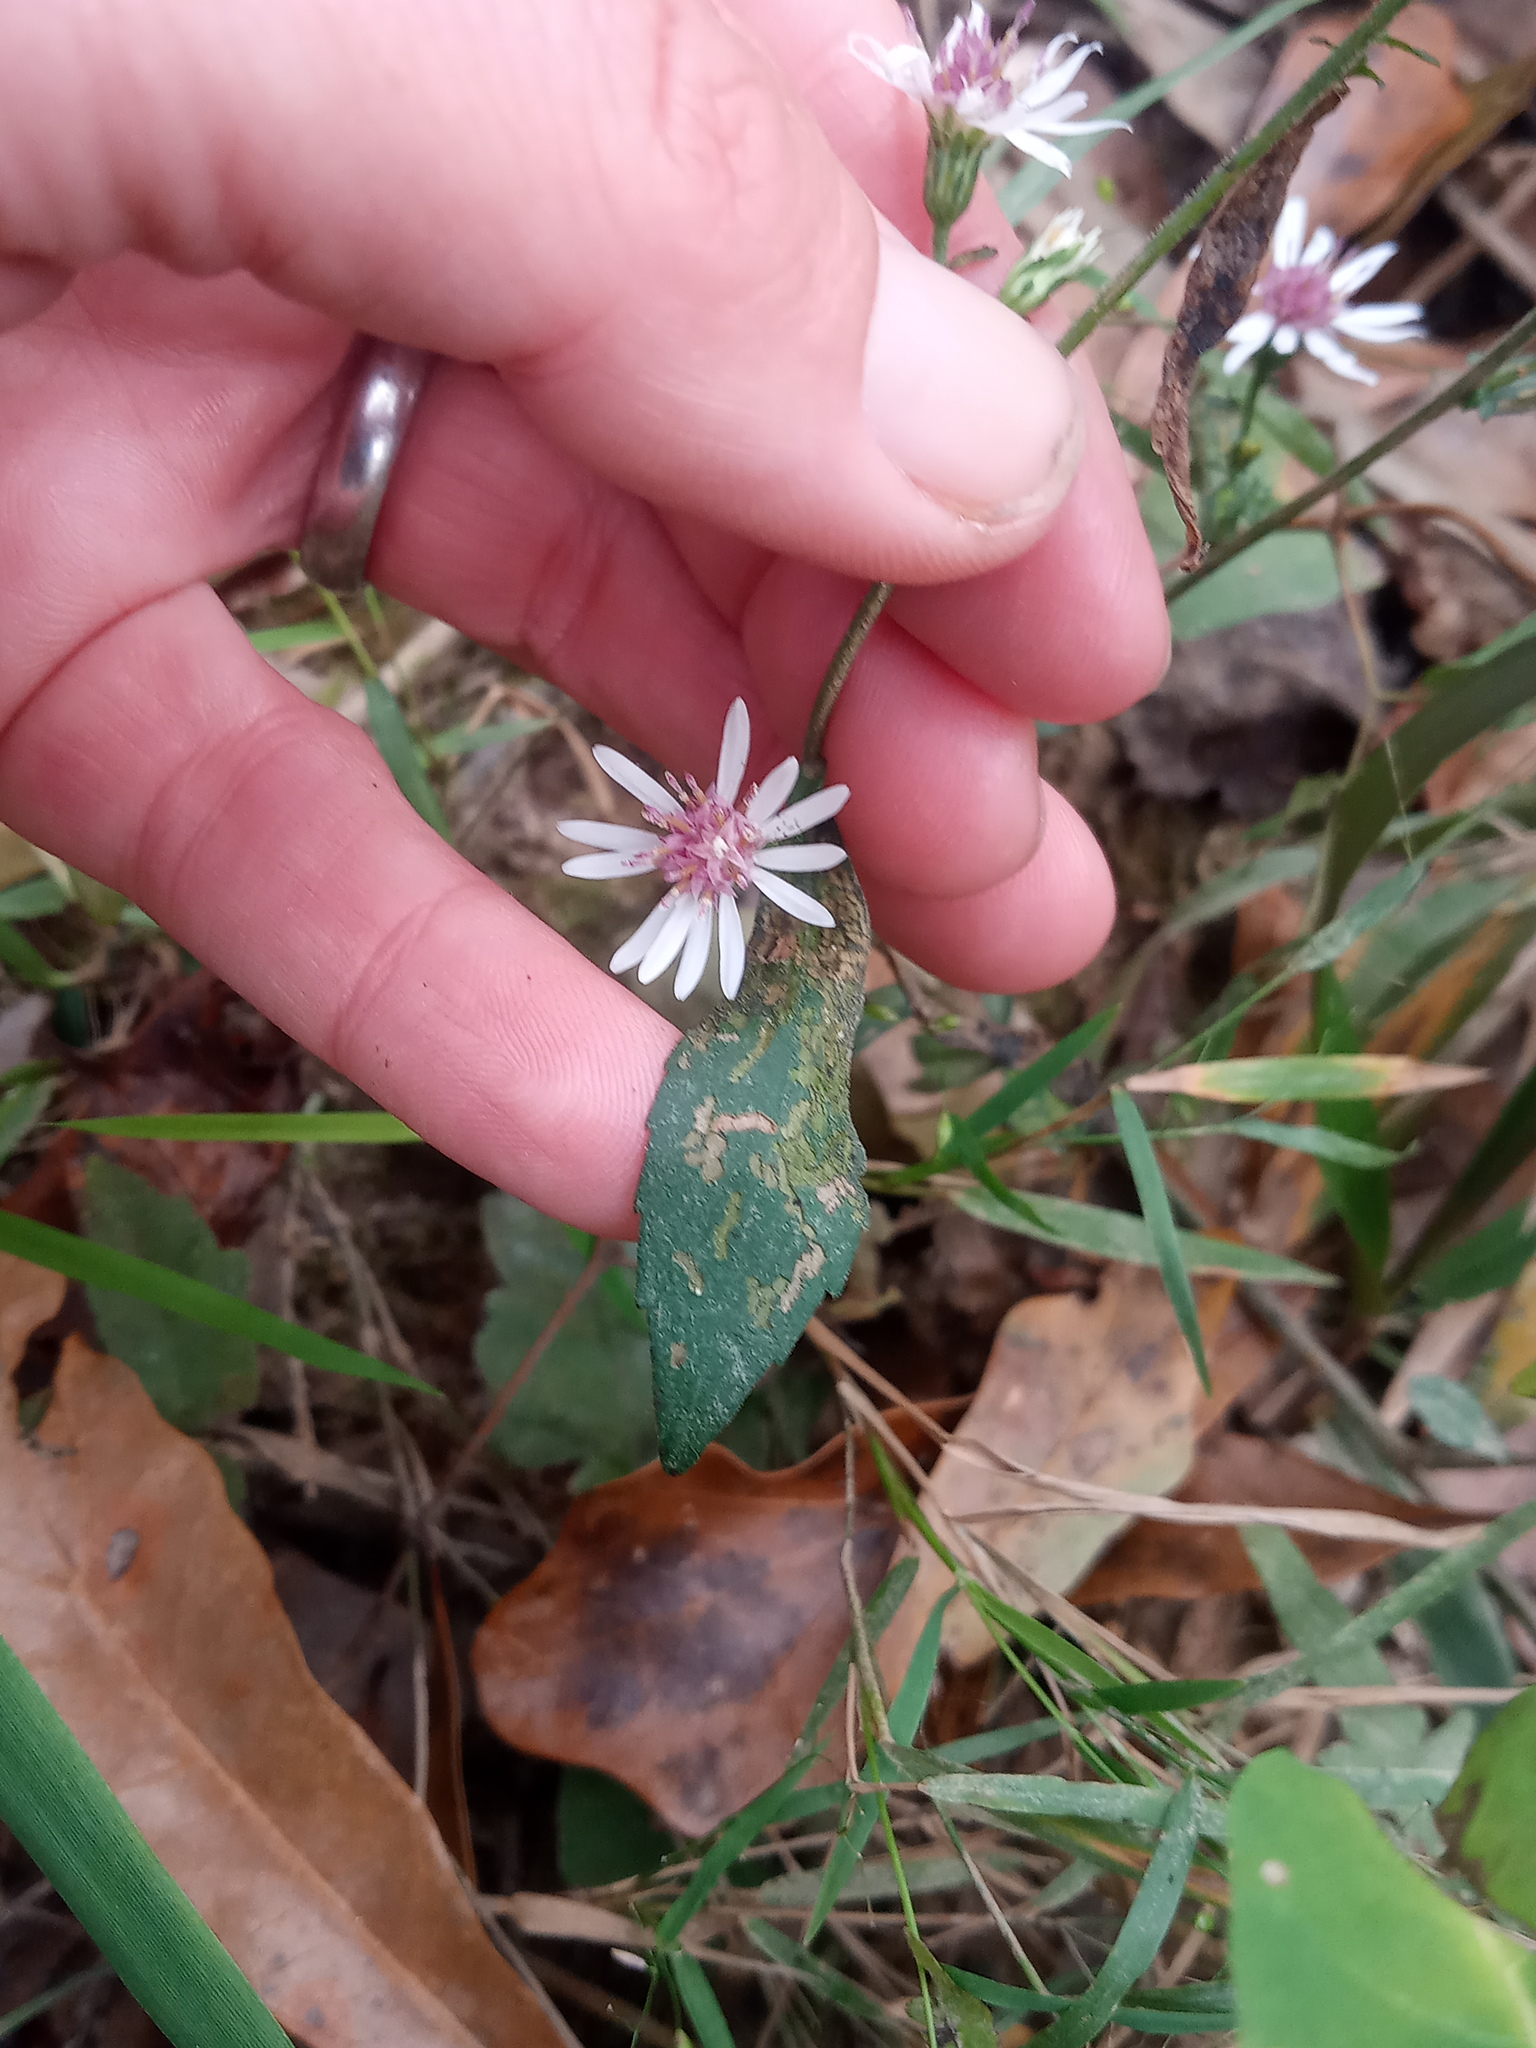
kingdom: Plantae
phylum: Tracheophyta
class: Magnoliopsida
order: Asterales
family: Asteraceae
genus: Symphyotrichum
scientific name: Symphyotrichum lateriflorum
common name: Calico aster
